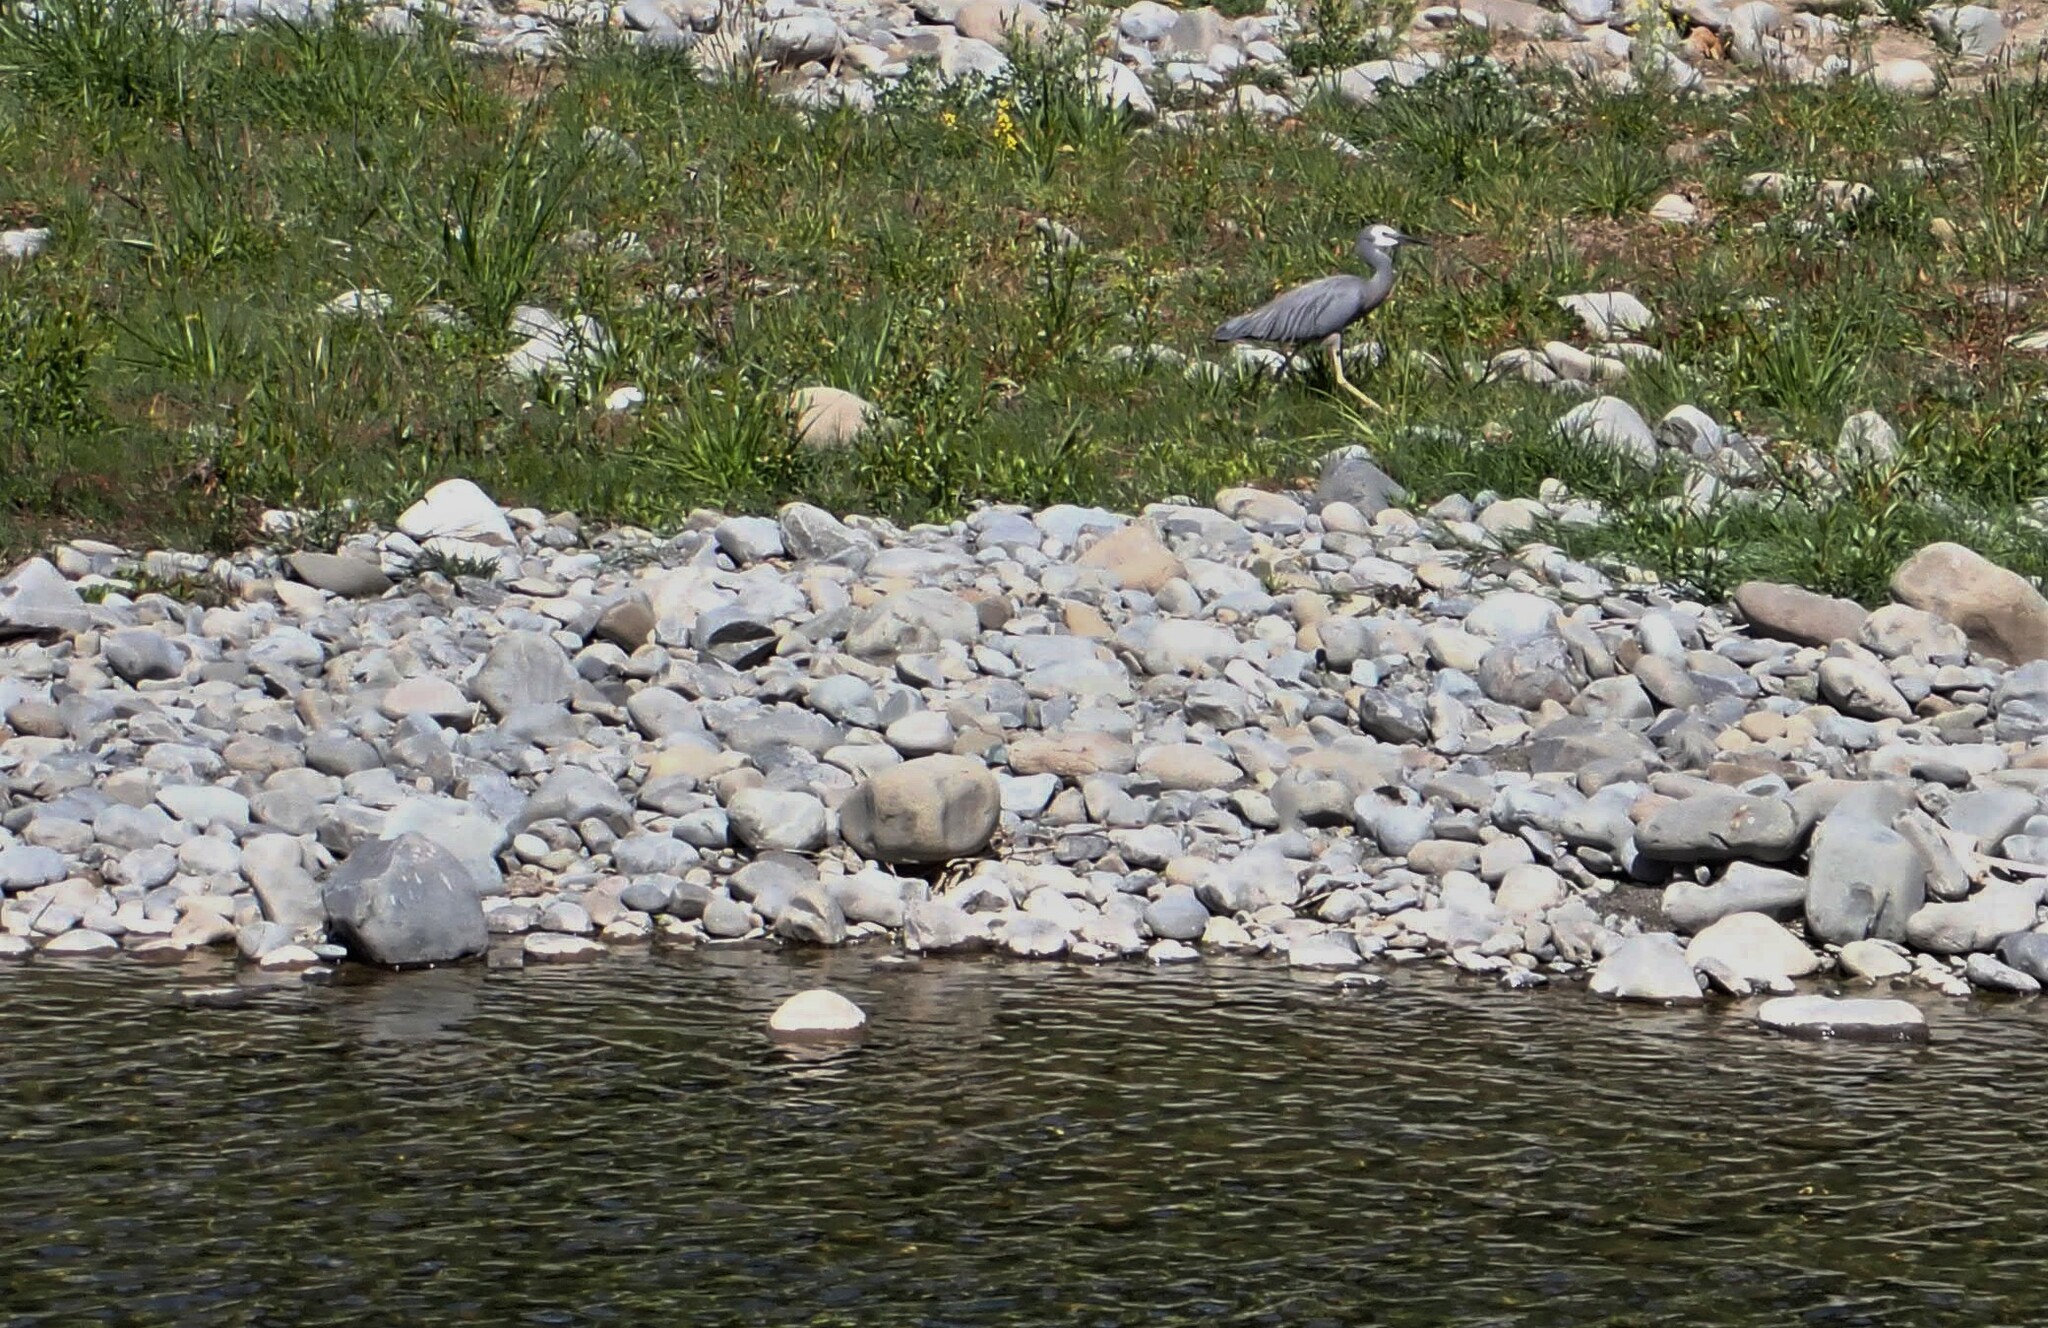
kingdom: Animalia
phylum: Chordata
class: Aves
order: Pelecaniformes
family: Ardeidae
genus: Egretta
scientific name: Egretta novaehollandiae
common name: White-faced heron
